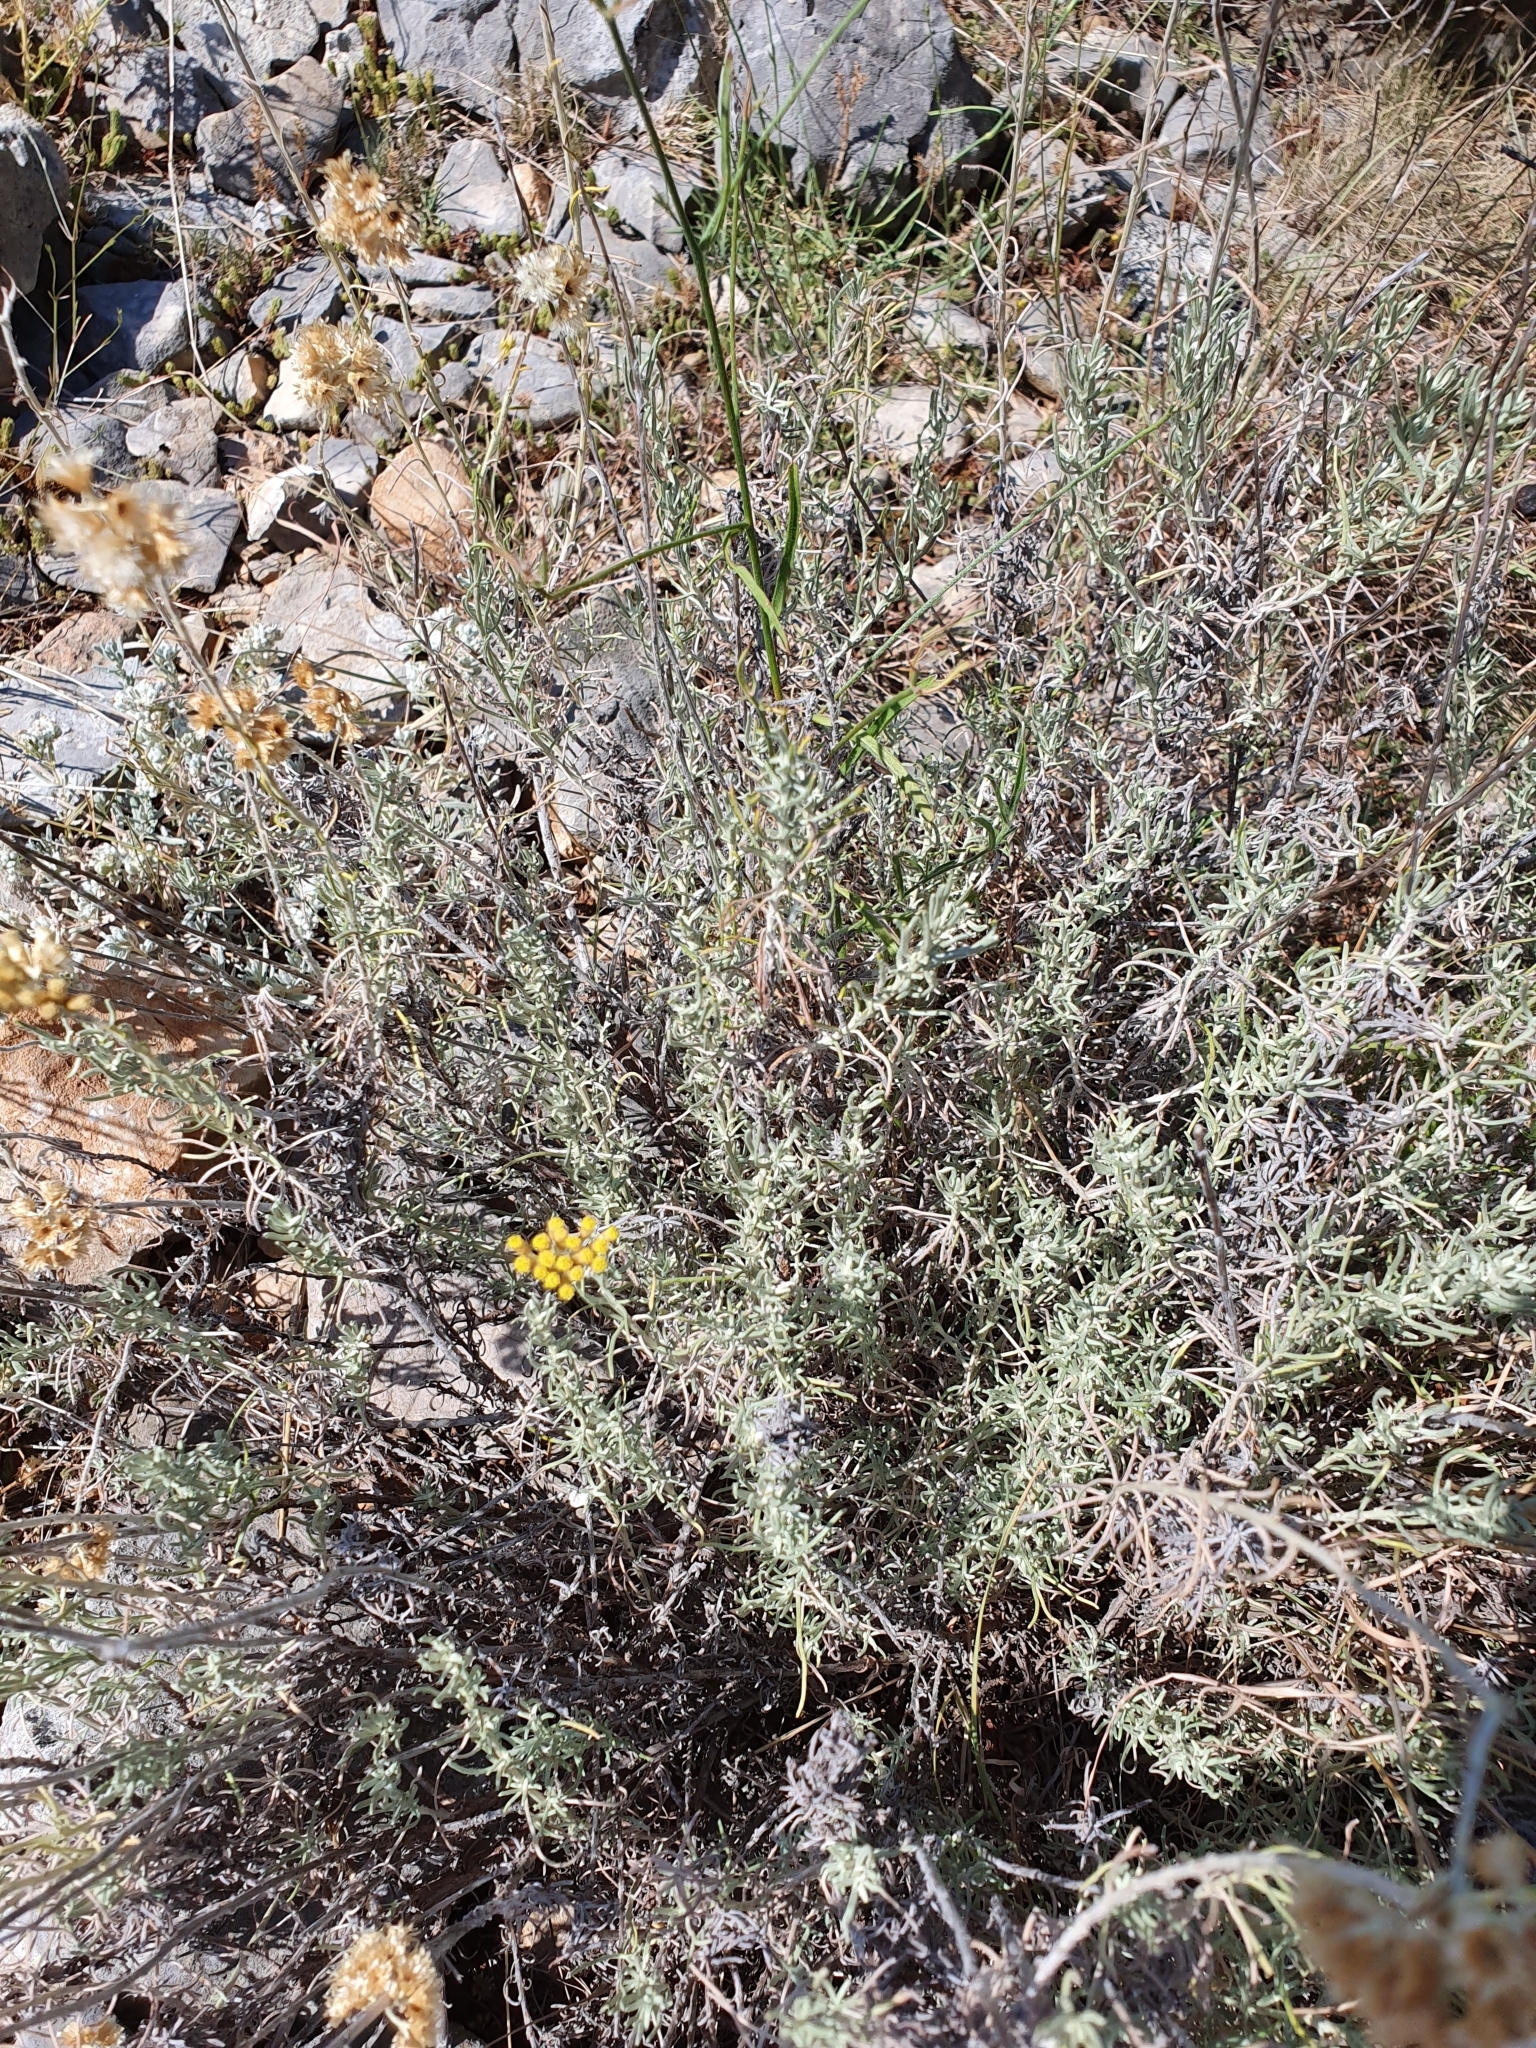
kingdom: Plantae
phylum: Tracheophyta
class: Magnoliopsida
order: Asterales
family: Asteraceae
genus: Helichrysum
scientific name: Helichrysum italicum
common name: Curryplant
